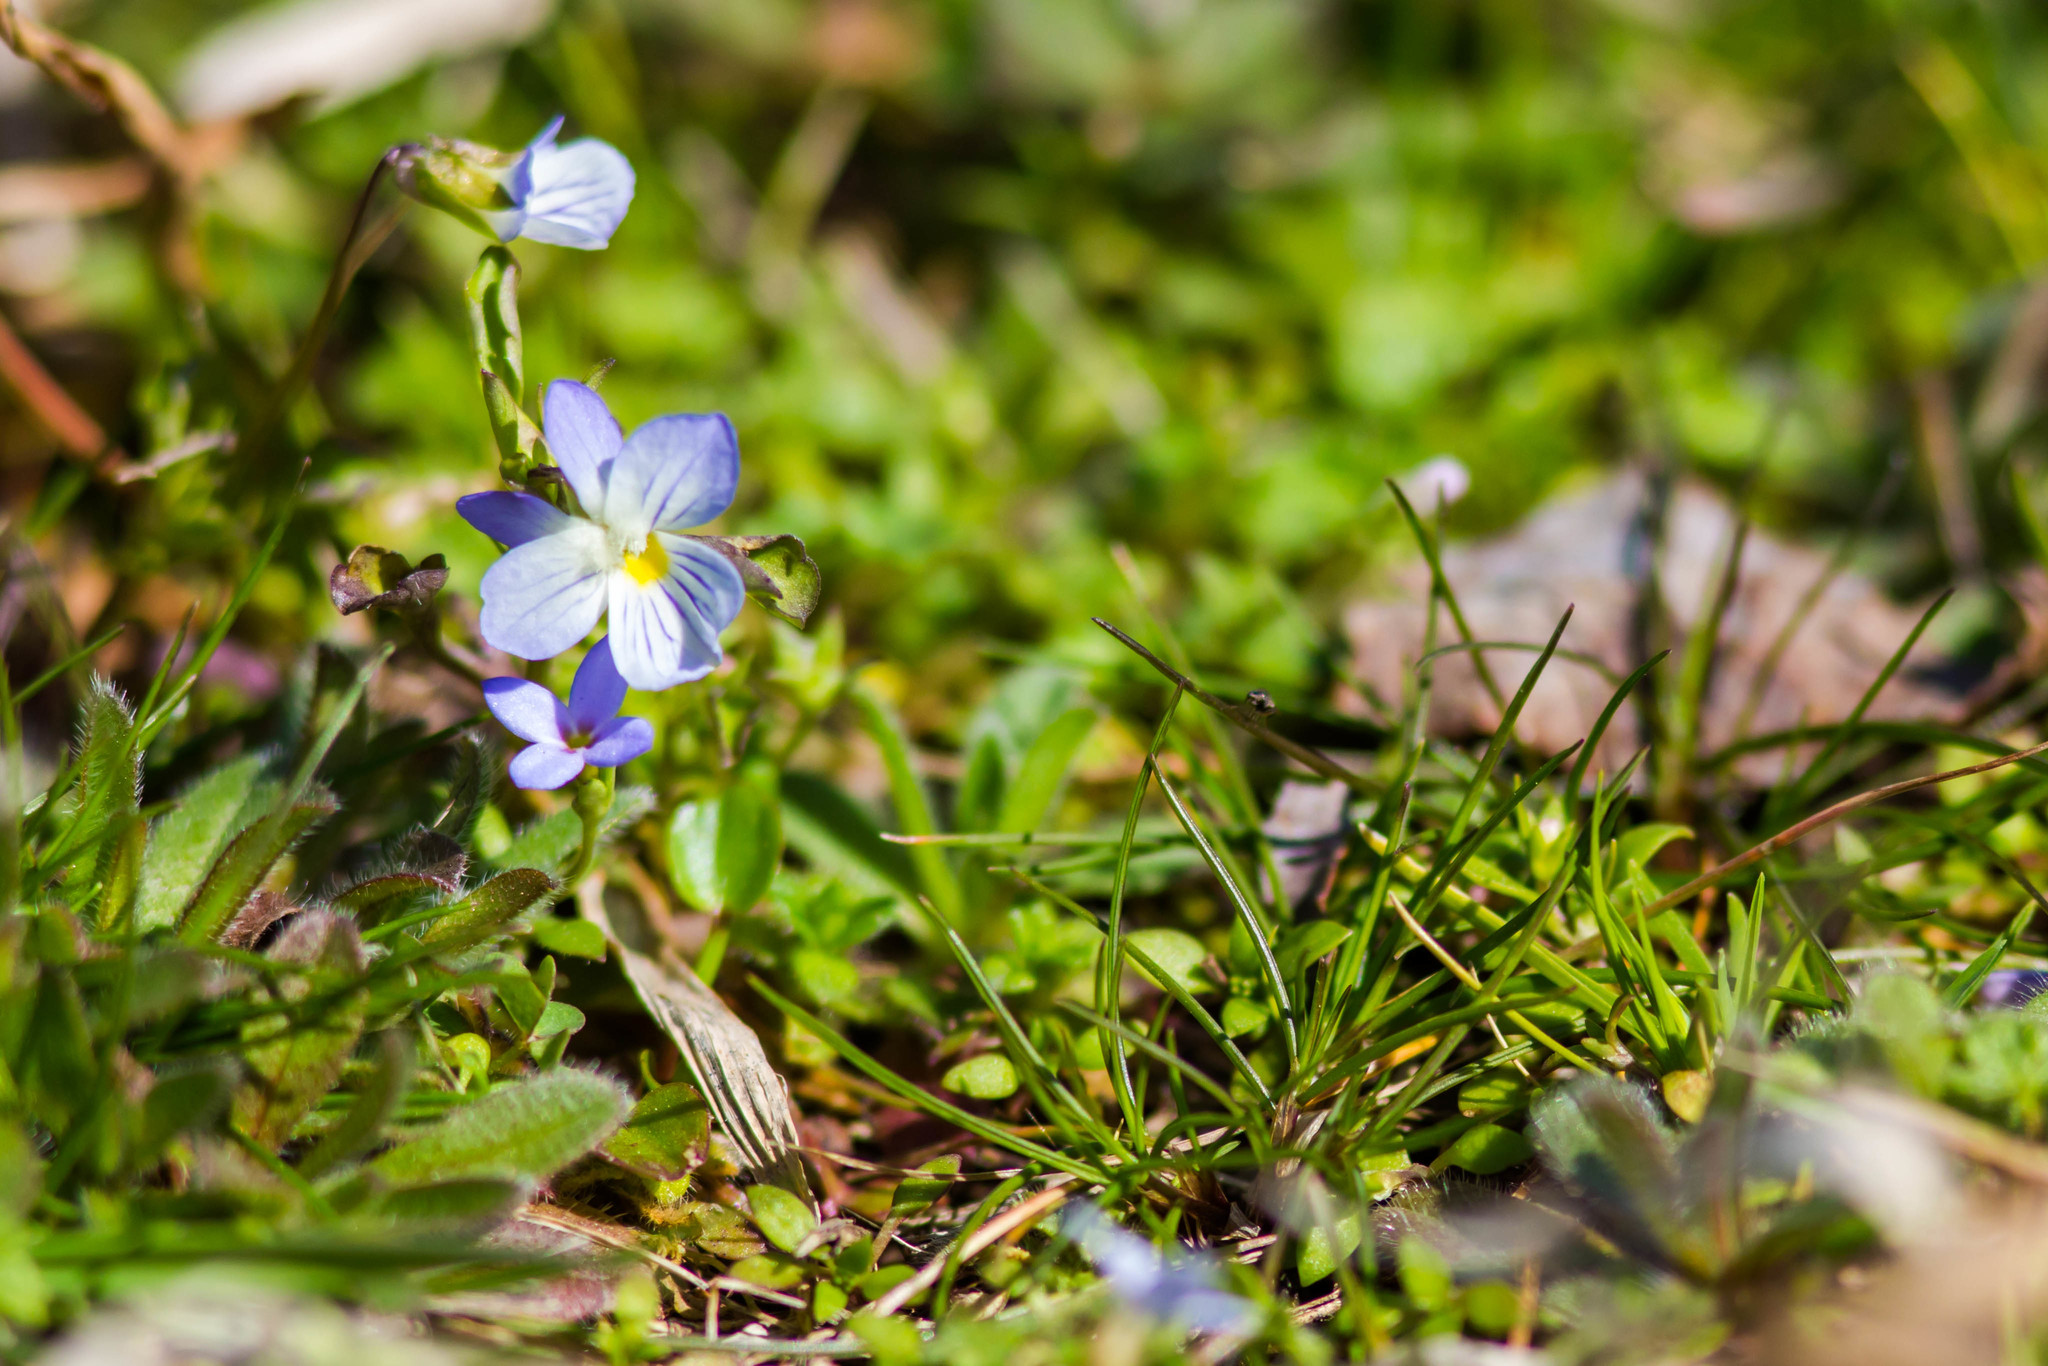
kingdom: Plantae
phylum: Tracheophyta
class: Magnoliopsida
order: Malpighiales
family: Violaceae
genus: Viola
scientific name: Viola rafinesquei
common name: American field pansy
